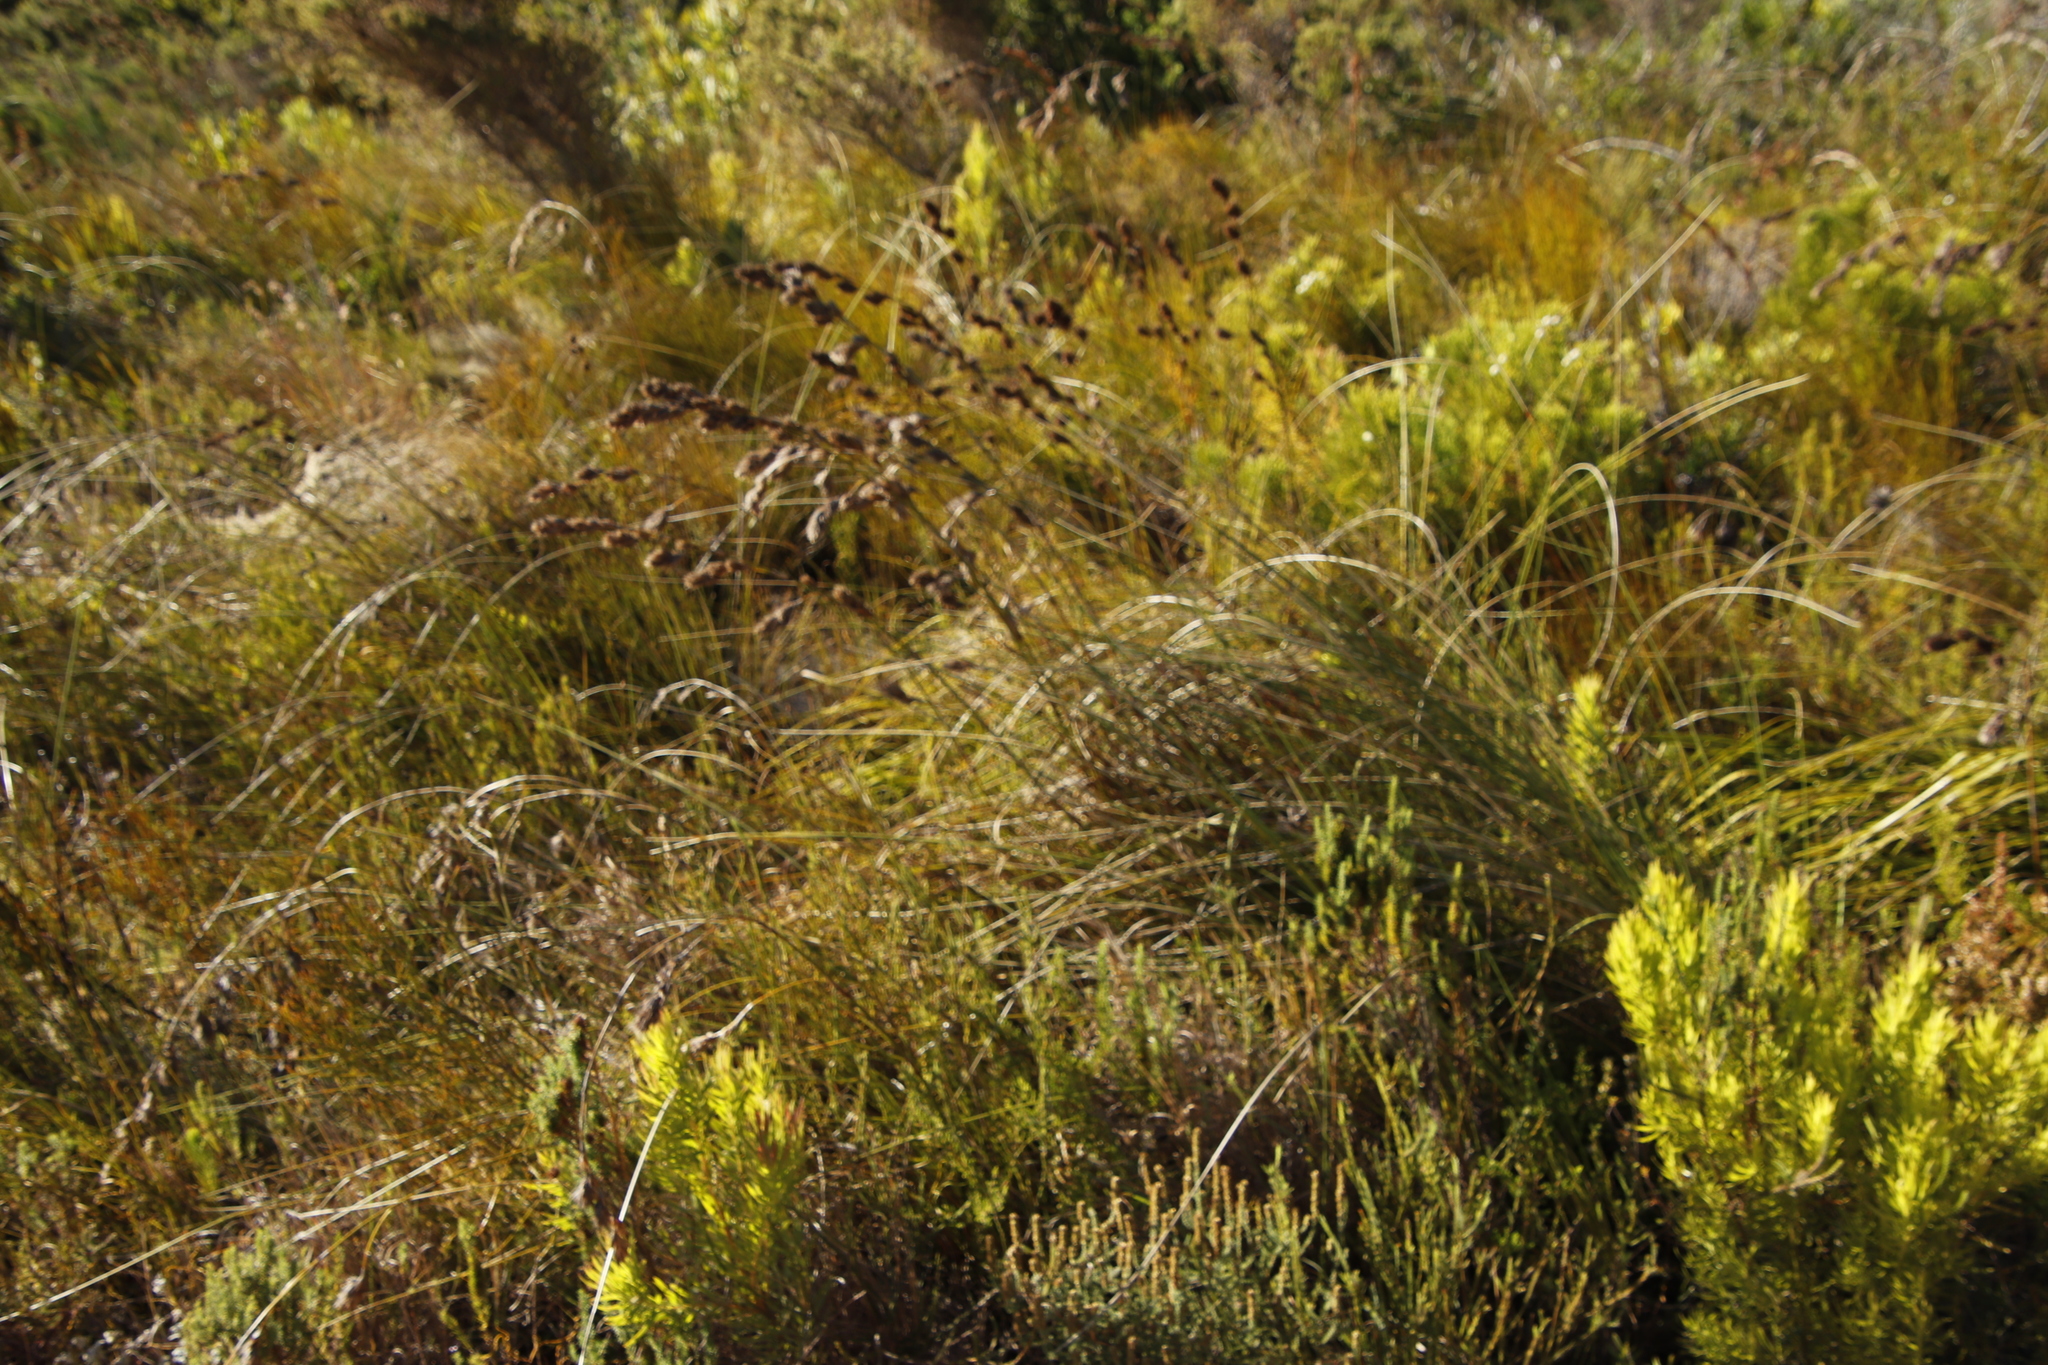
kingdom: Plantae
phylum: Tracheophyta
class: Liliopsida
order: Poales
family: Cyperaceae
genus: Tetraria
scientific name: Tetraria bromoides
